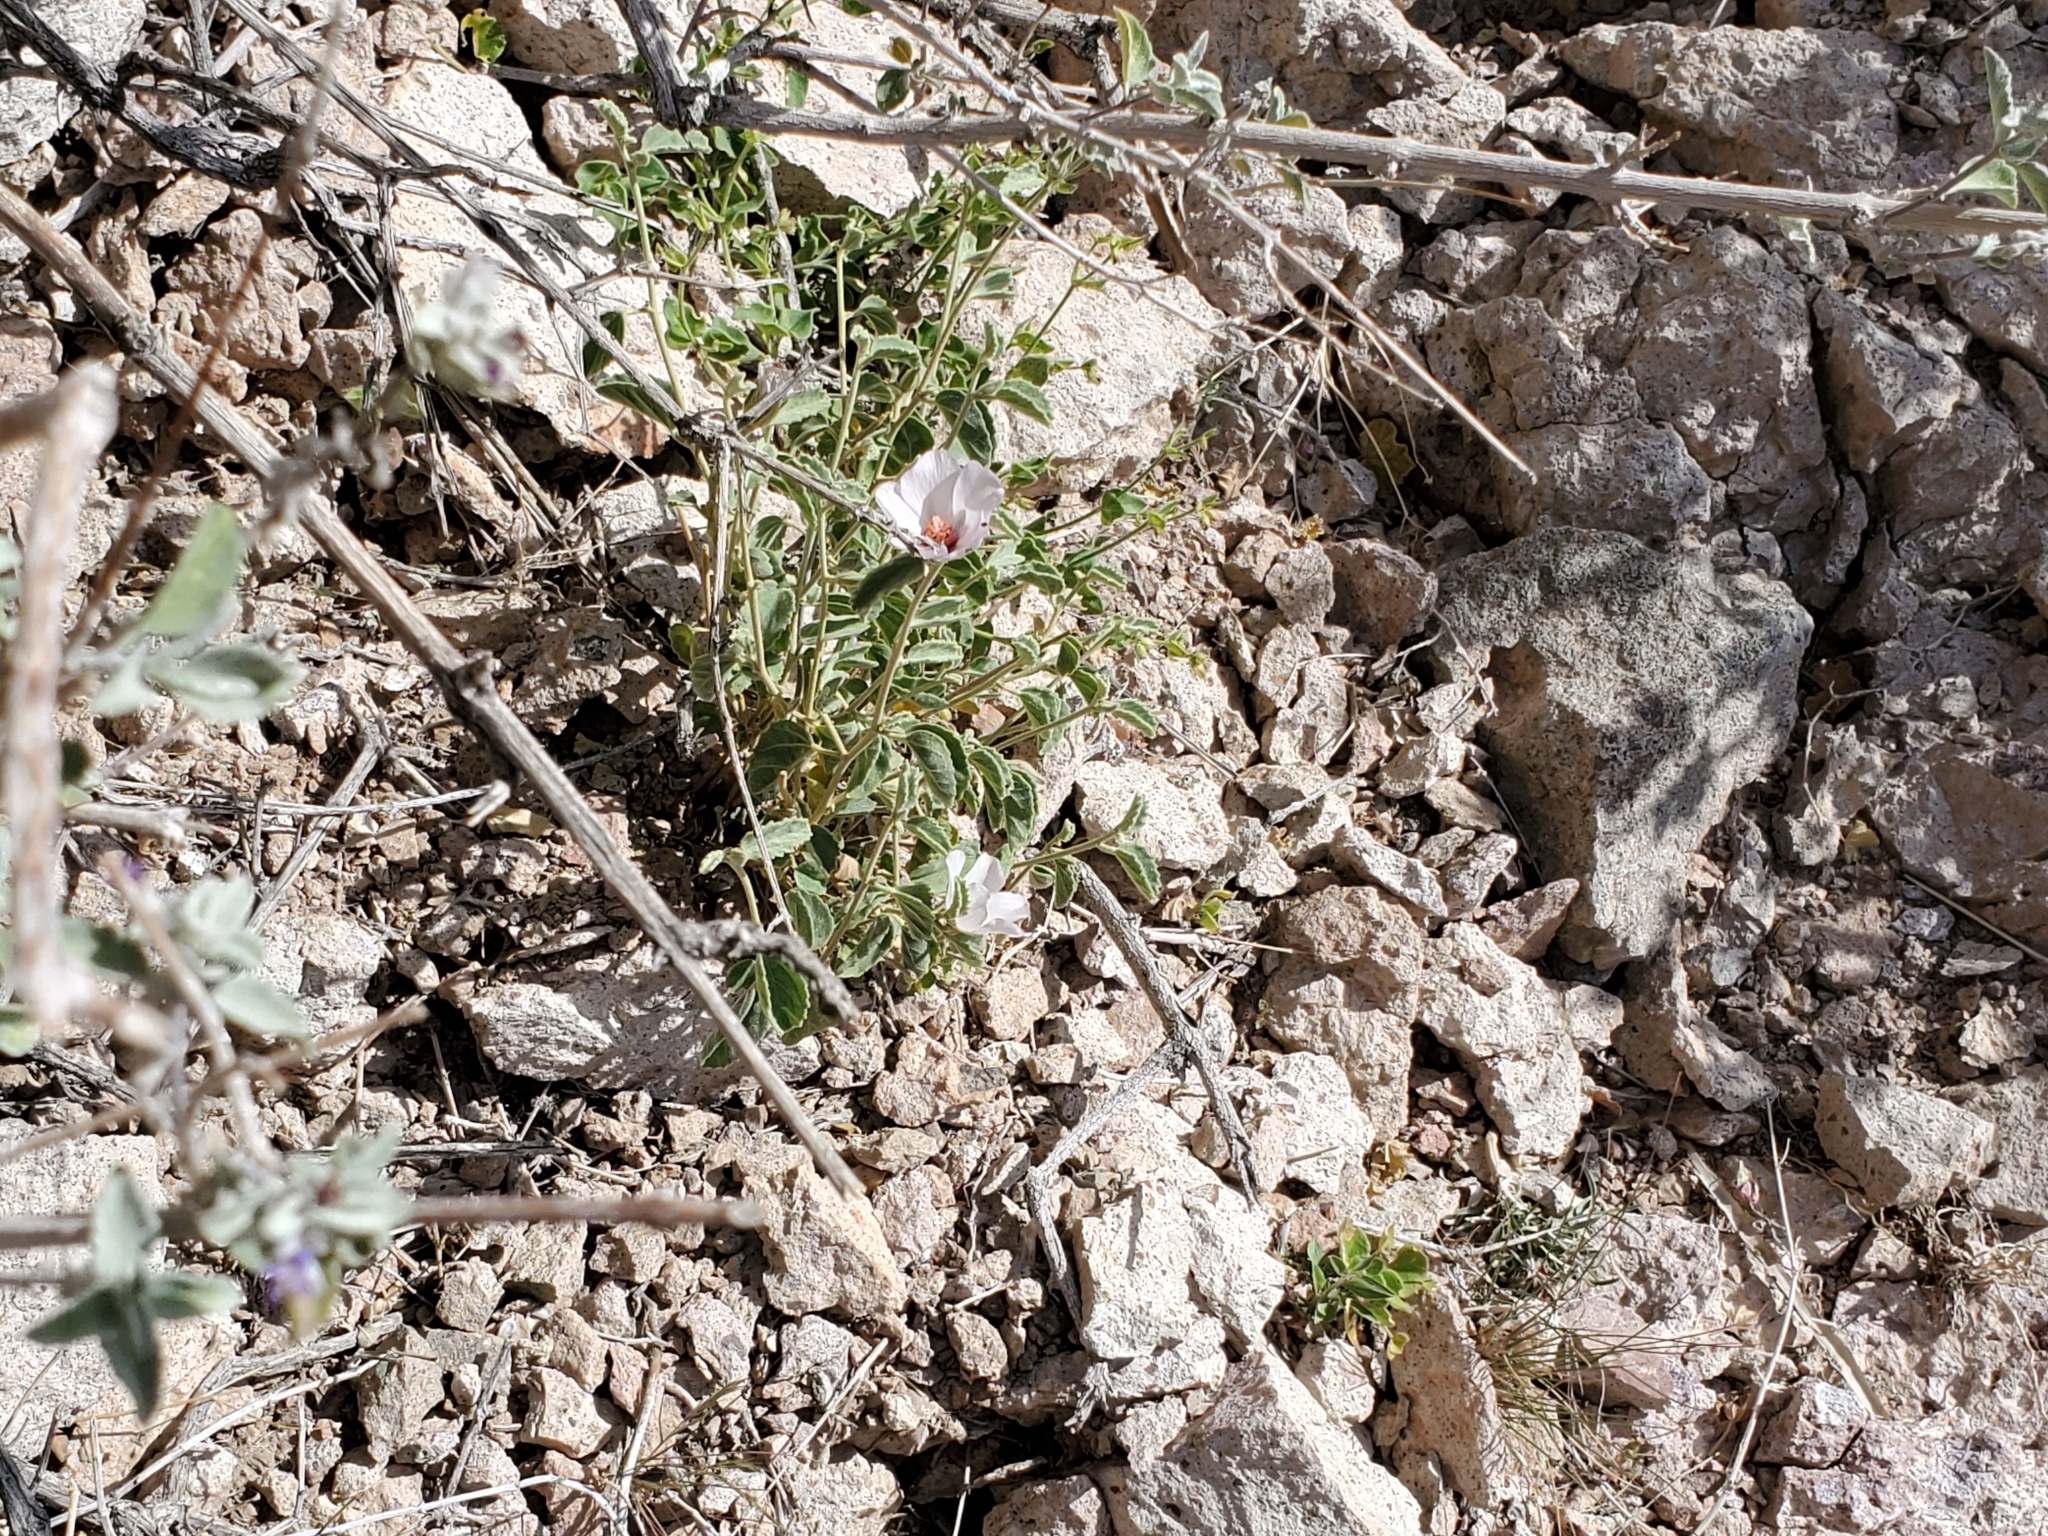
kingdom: Plantae
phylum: Tracheophyta
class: Magnoliopsida
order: Malvales
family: Malvaceae
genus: Hibiscus
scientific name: Hibiscus denudatus
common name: Paleface
